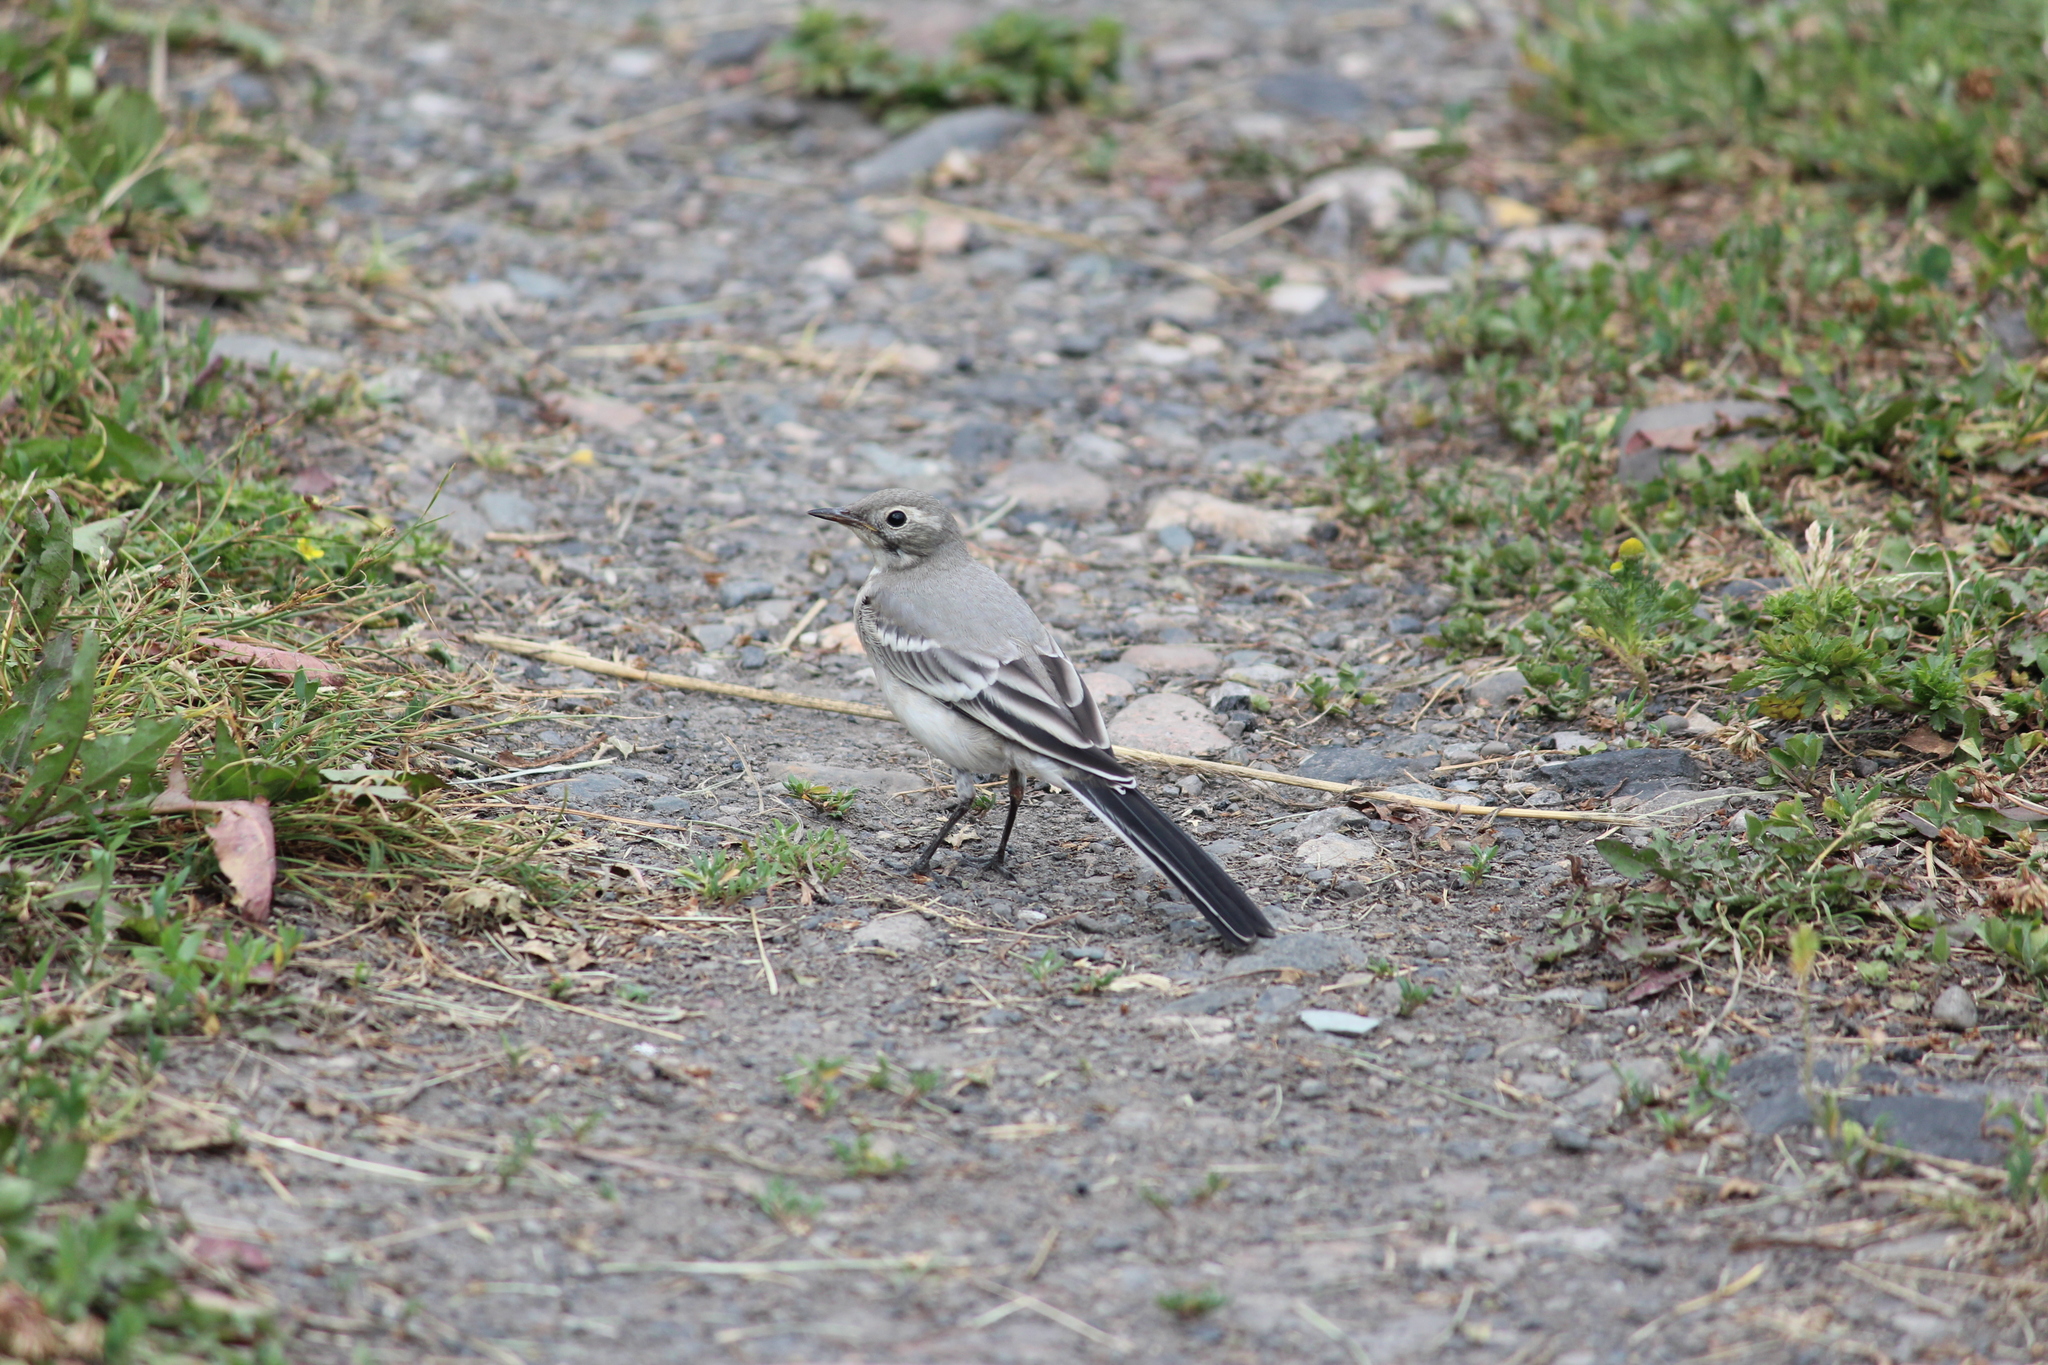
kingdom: Animalia
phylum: Chordata
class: Aves
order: Passeriformes
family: Motacillidae
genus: Motacilla
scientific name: Motacilla alba
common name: White wagtail
